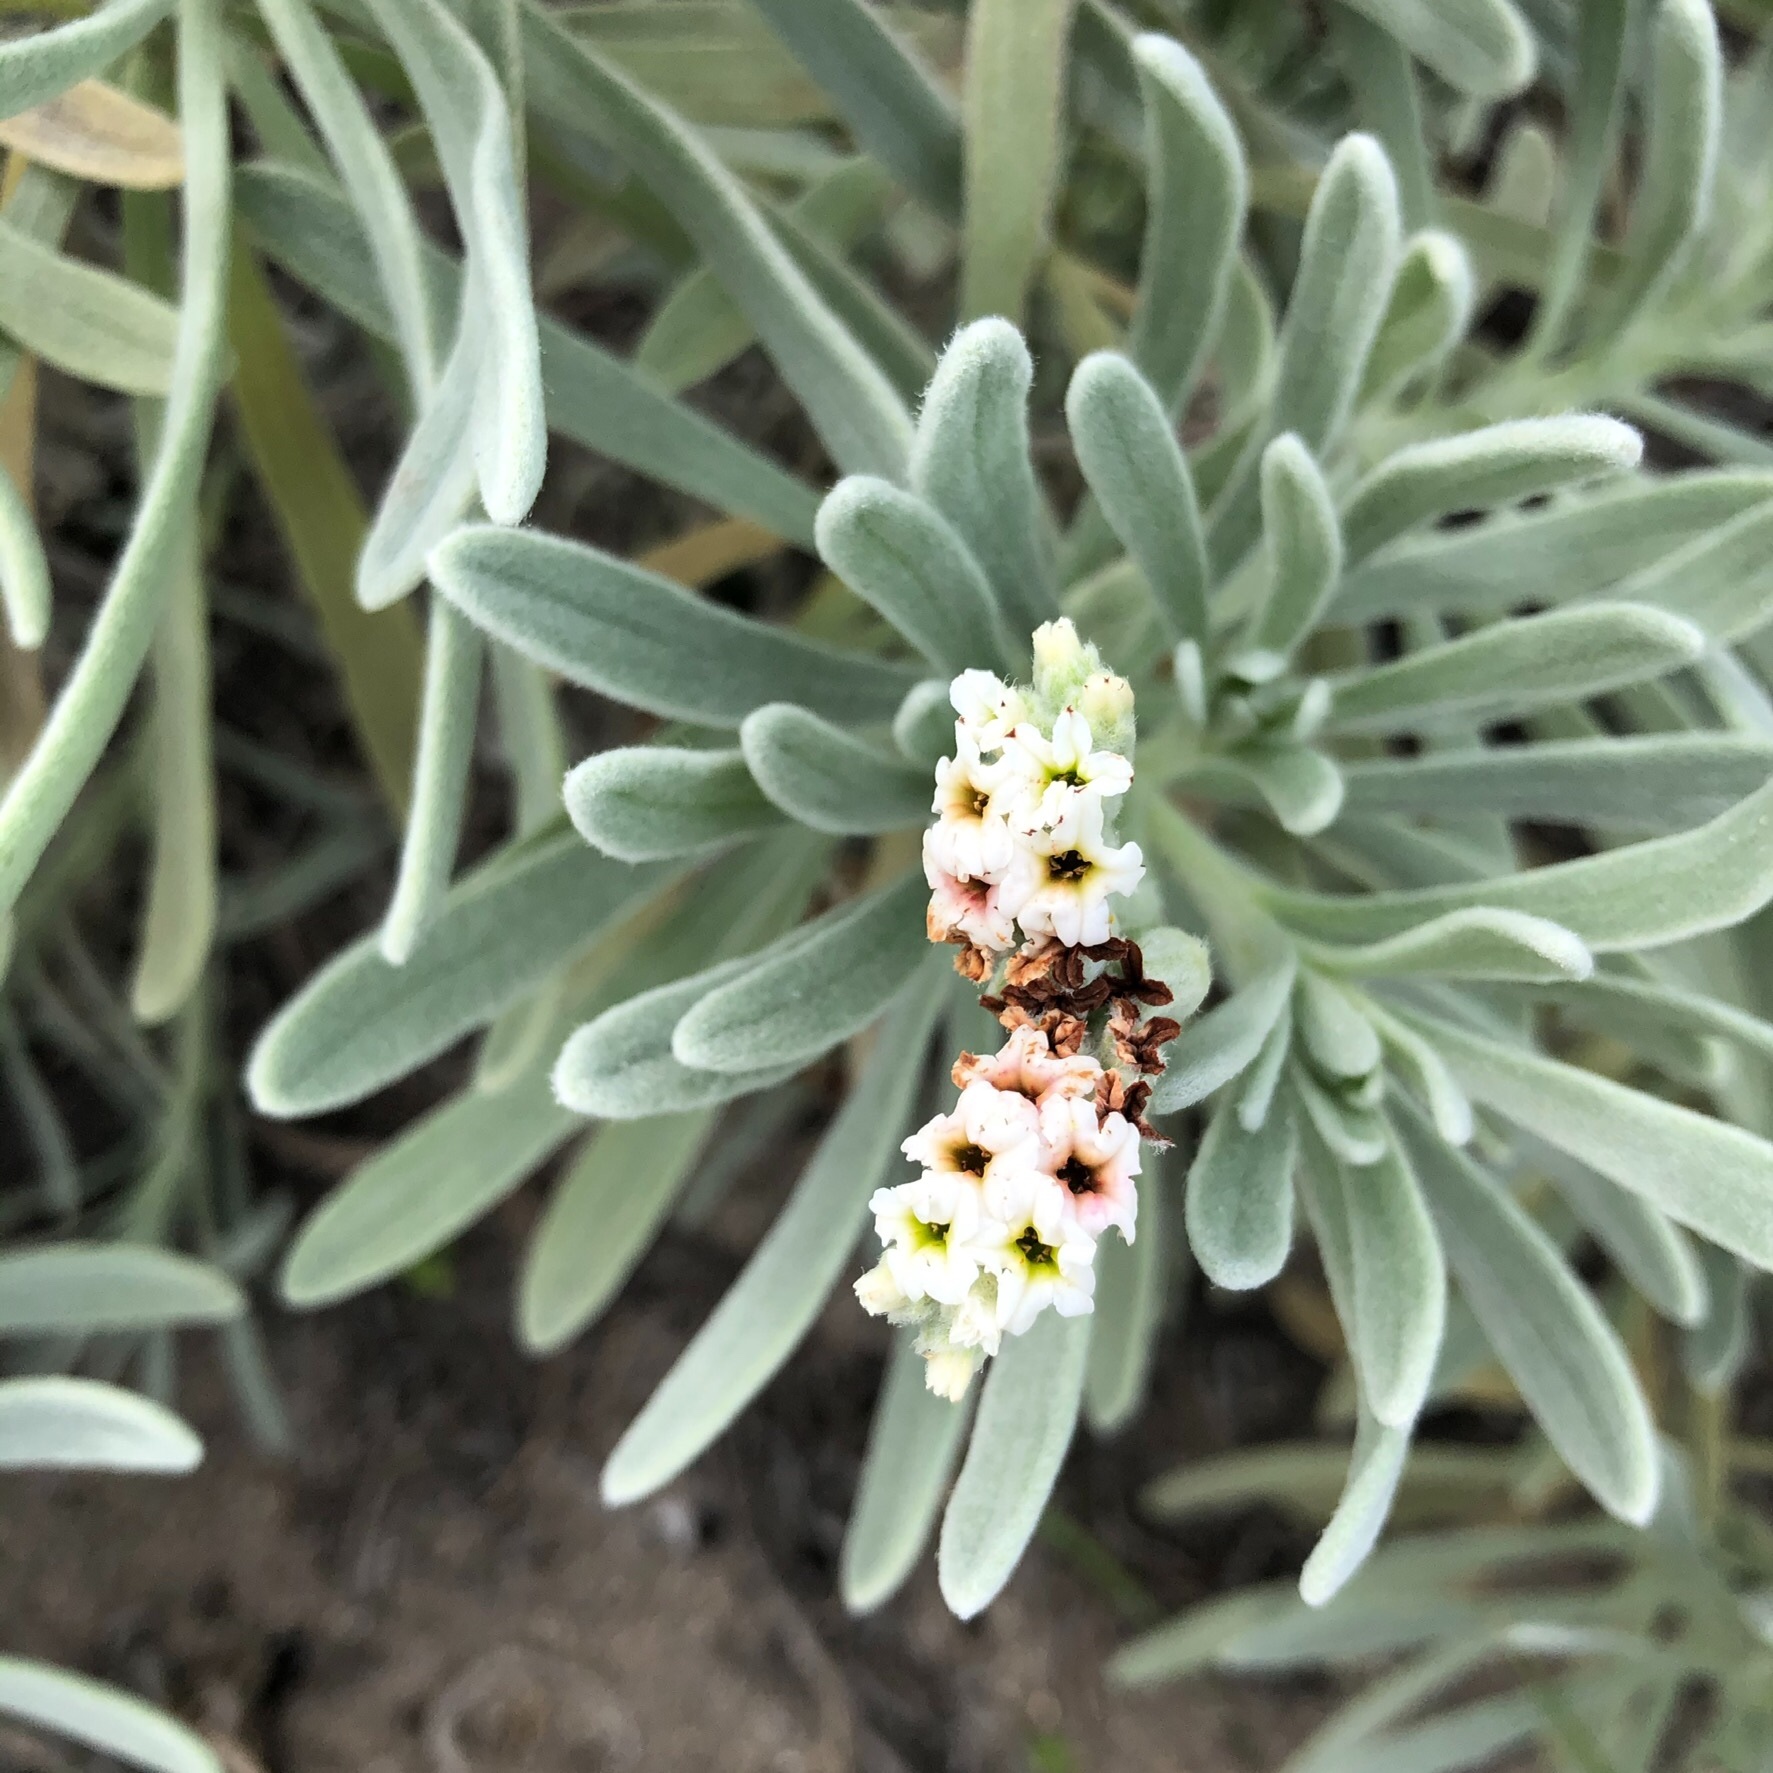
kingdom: Plantae
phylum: Tracheophyta
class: Magnoliopsida
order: Boraginales
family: Heliotropiaceae
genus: Tournefortia
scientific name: Tournefortia gnaphalodes
